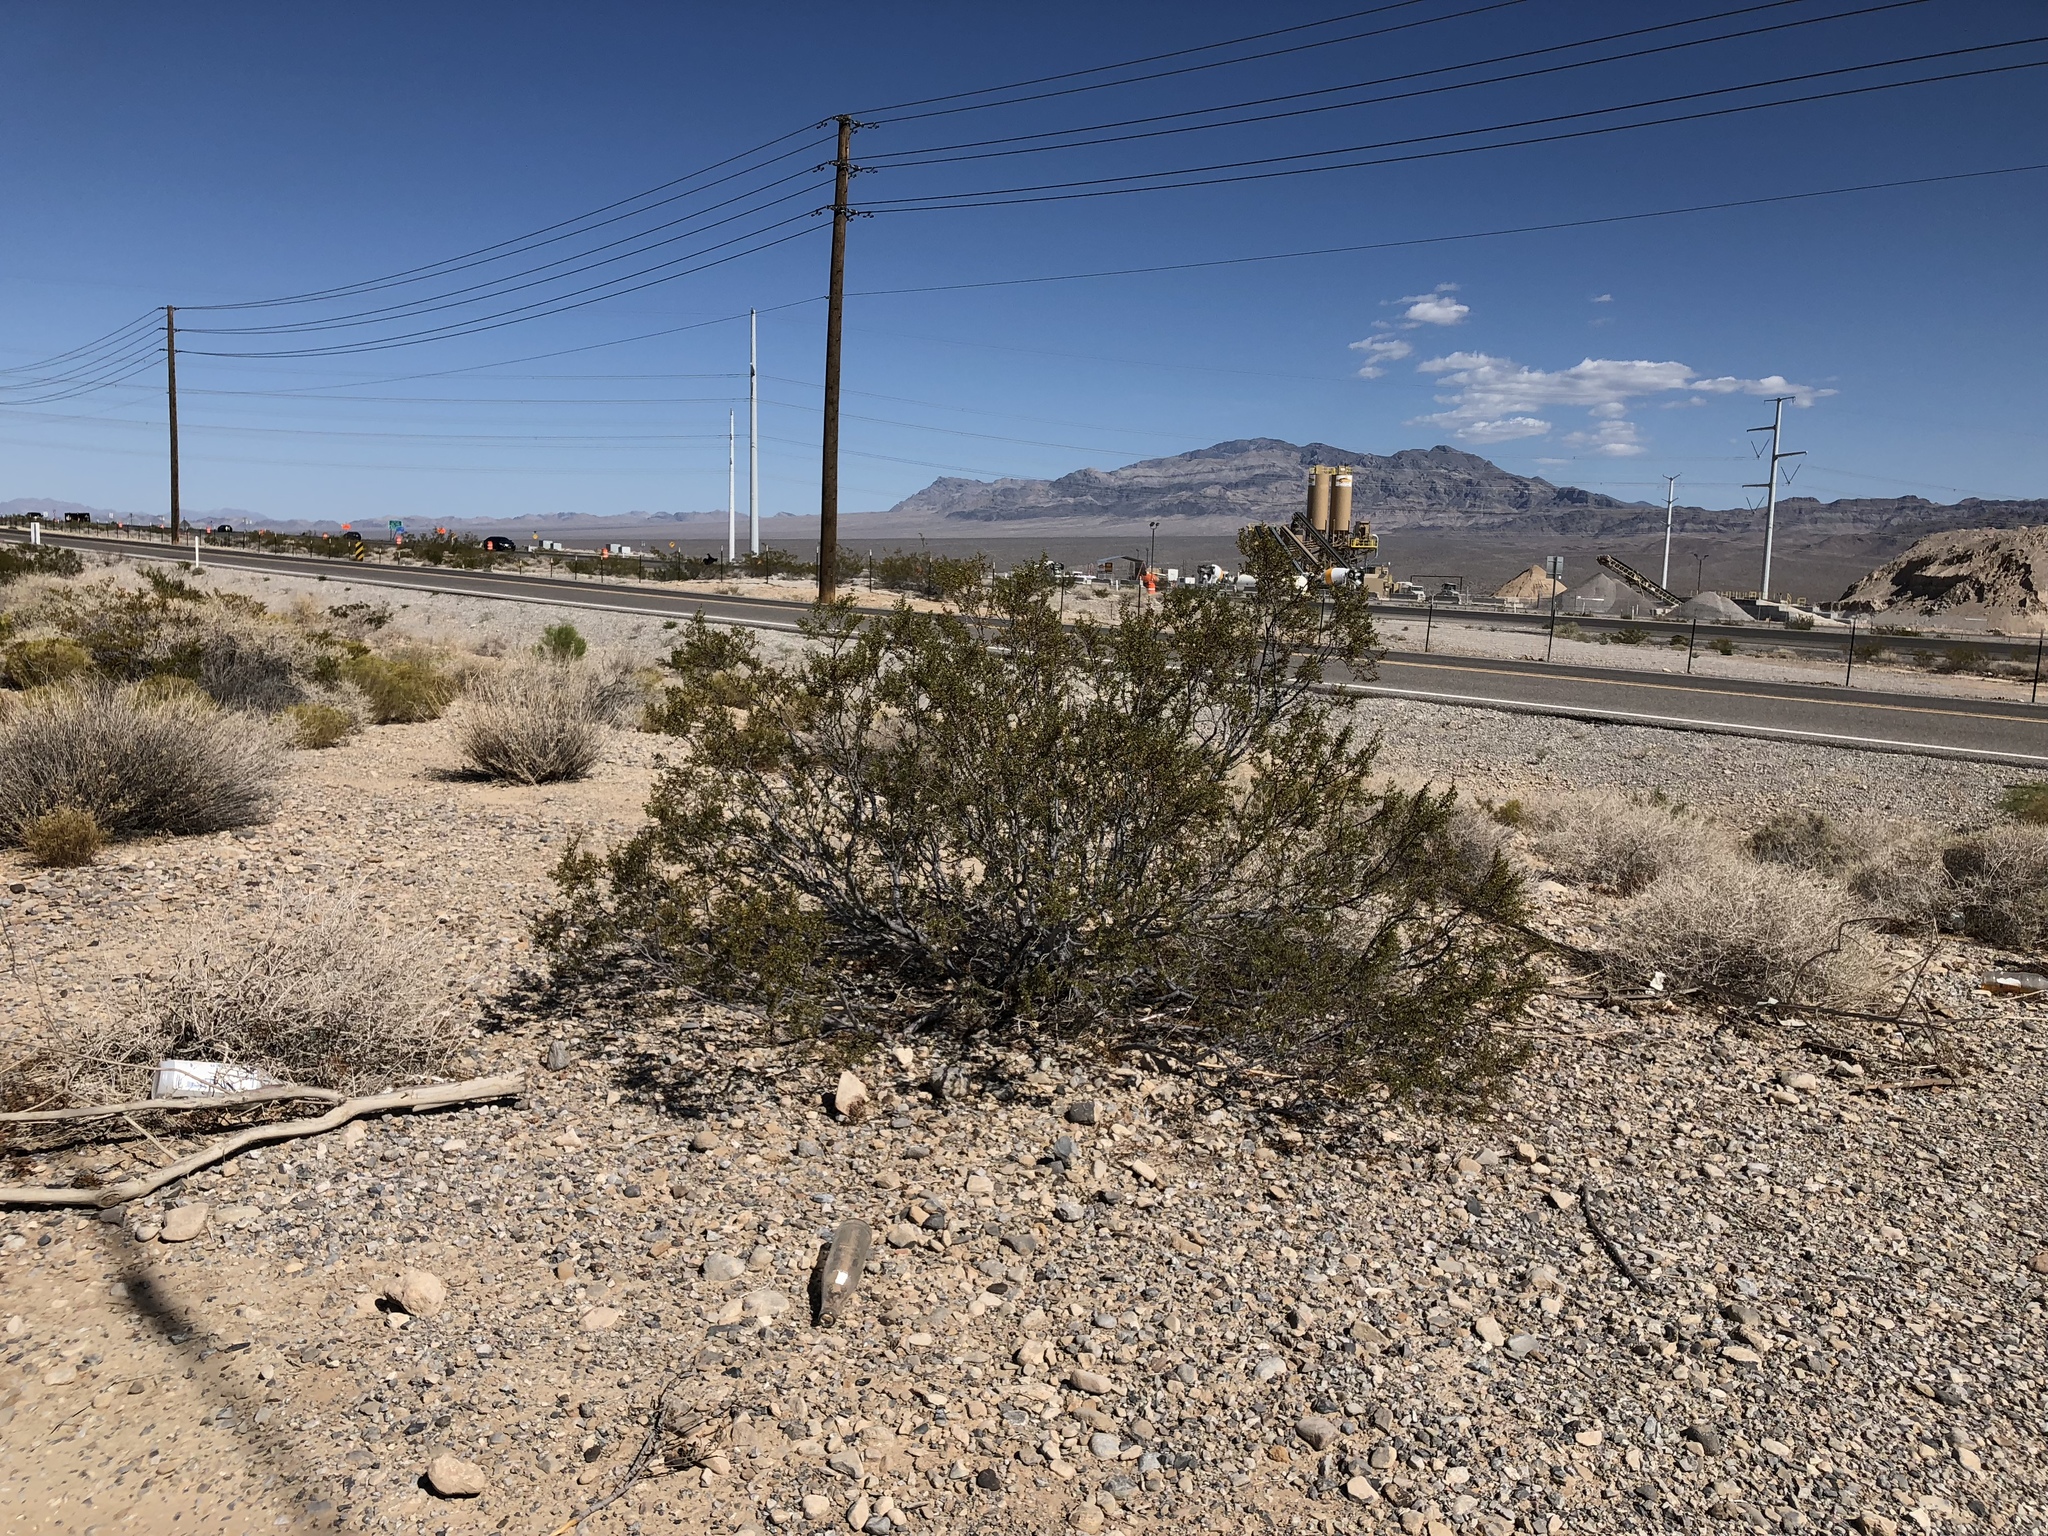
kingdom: Plantae
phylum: Tracheophyta
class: Magnoliopsida
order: Zygophyllales
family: Zygophyllaceae
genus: Larrea
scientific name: Larrea tridentata
